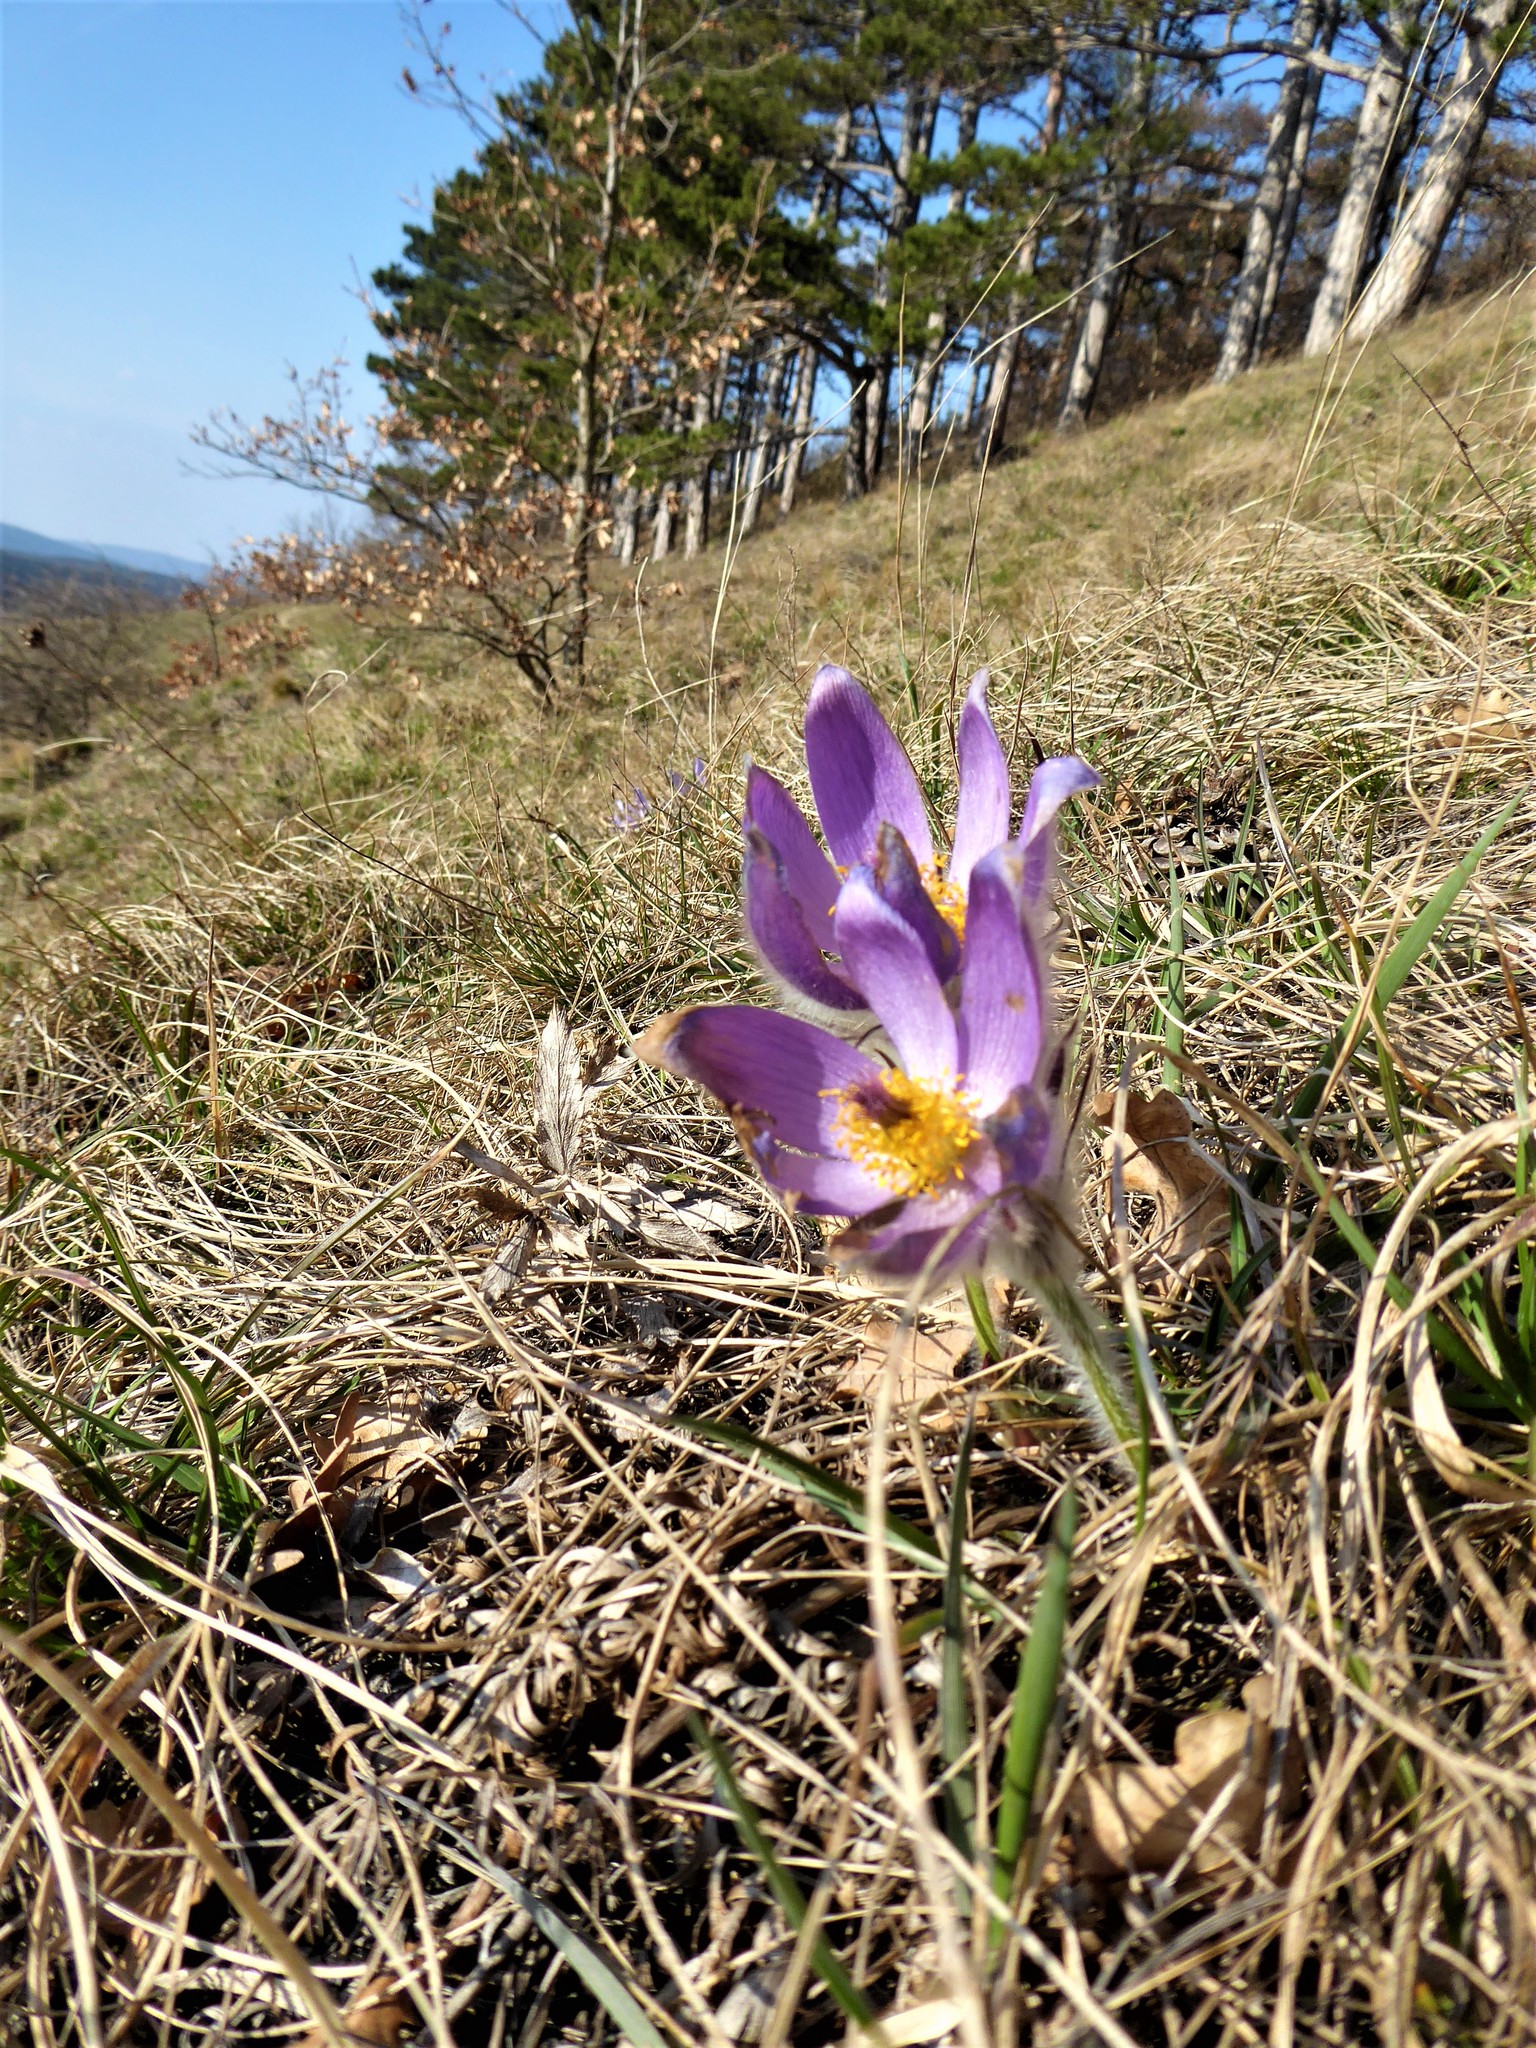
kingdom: Plantae
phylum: Tracheophyta
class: Magnoliopsida
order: Ranunculales
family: Ranunculaceae
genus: Pulsatilla
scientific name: Pulsatilla grandis
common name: Greater pasque flower
